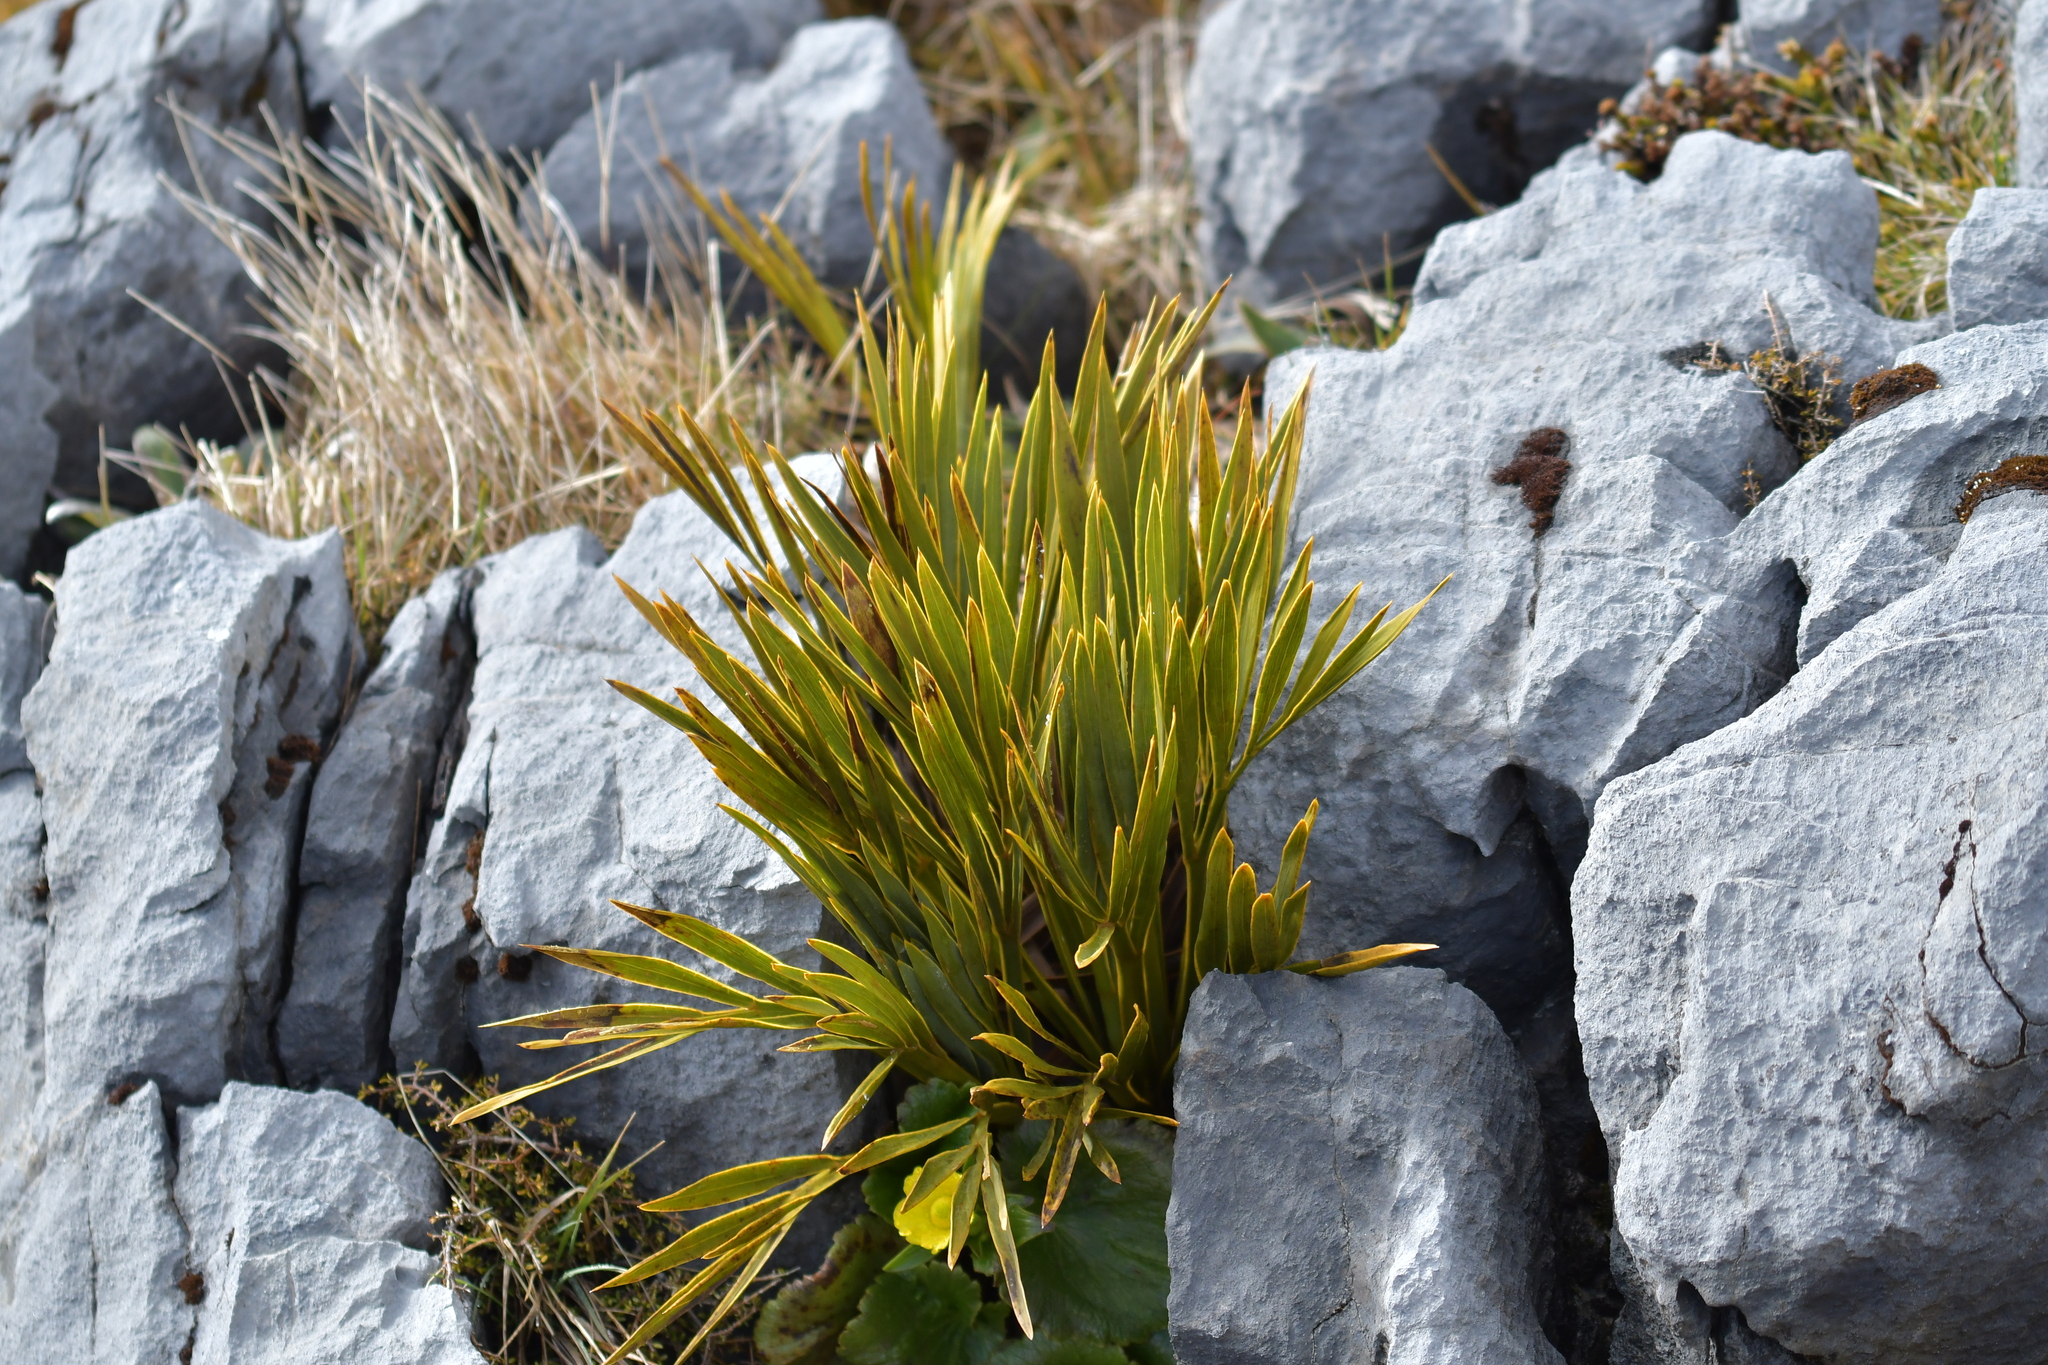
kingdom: Plantae
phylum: Tracheophyta
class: Magnoliopsida
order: Apiales
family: Apiaceae
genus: Aciphylla
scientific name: Aciphylla ferox
